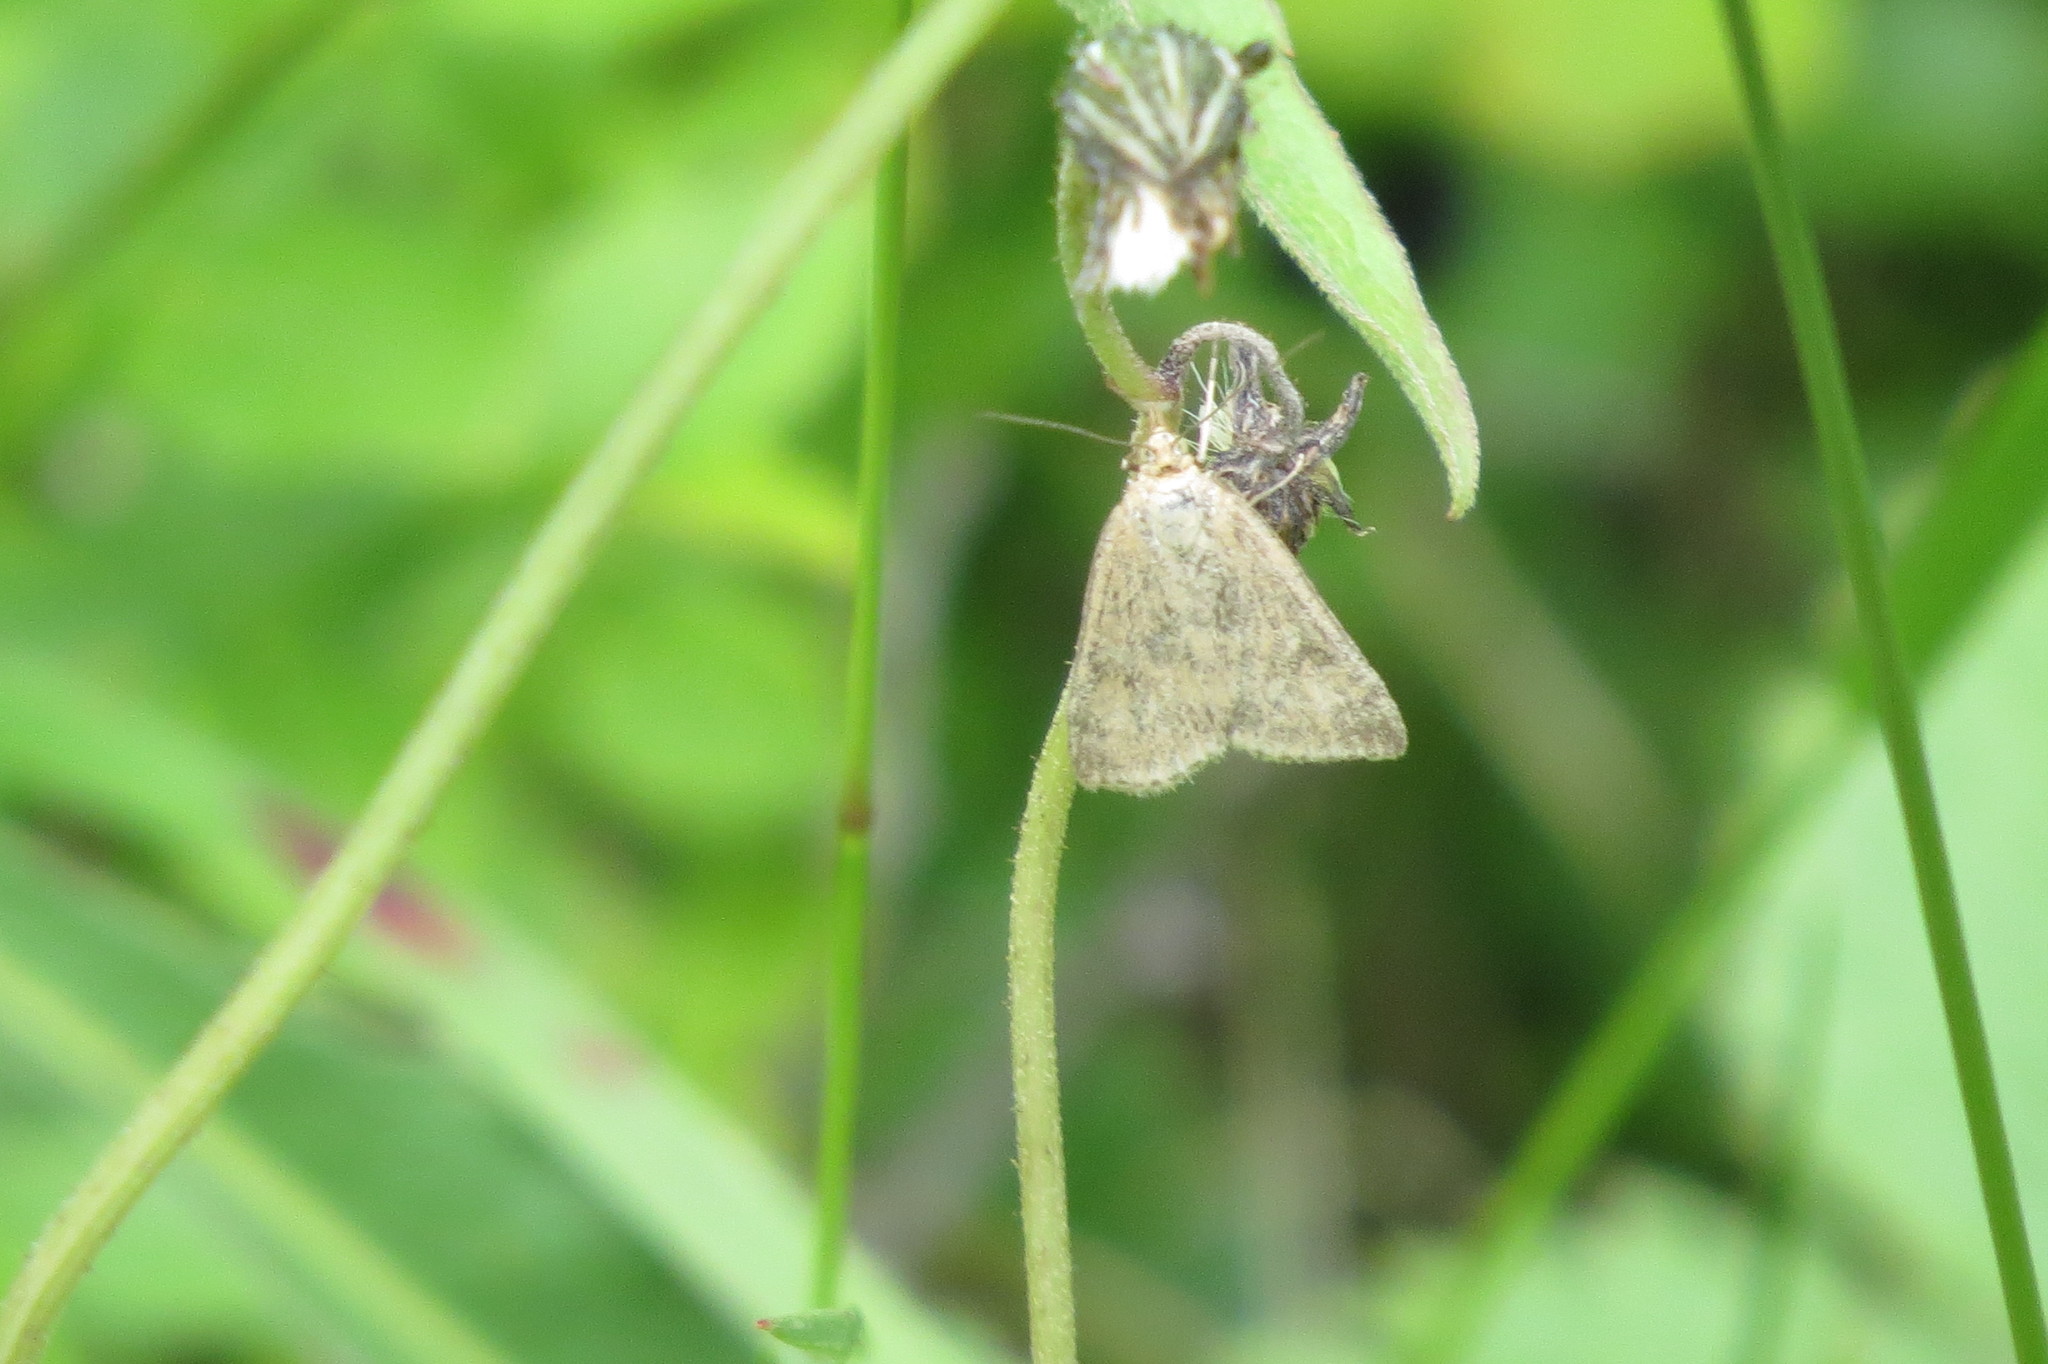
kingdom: Animalia
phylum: Arthropoda
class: Insecta
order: Lepidoptera
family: Crambidae
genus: Pyrausta
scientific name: Pyrausta despicata
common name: Straw-barred pearl
